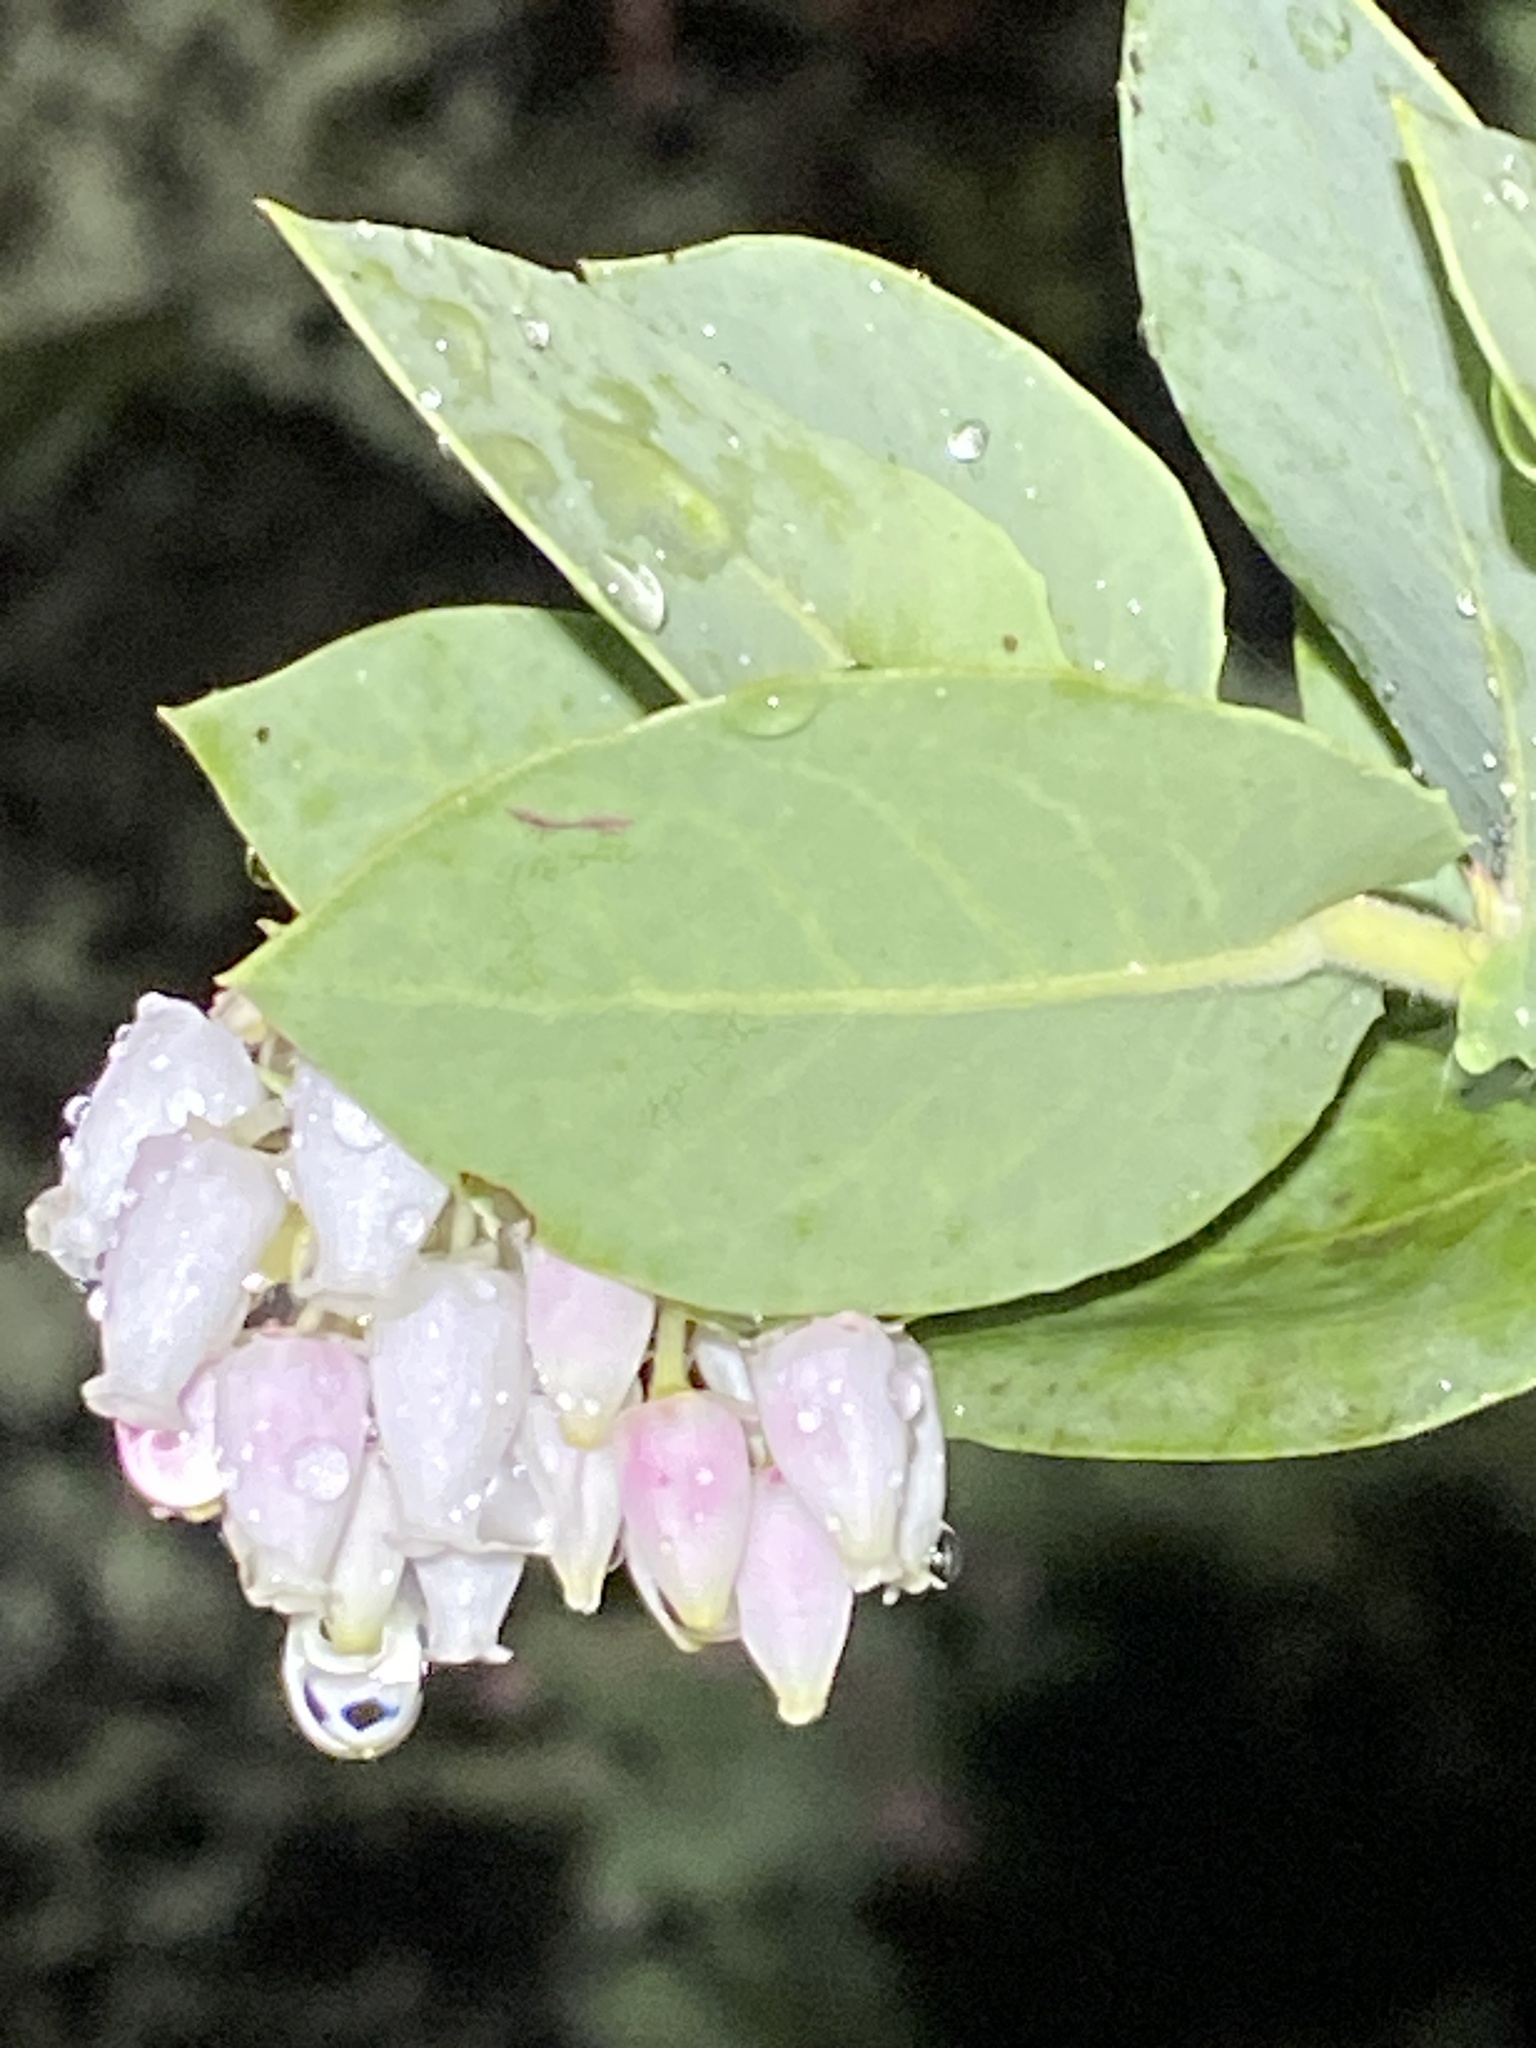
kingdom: Plantae
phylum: Tracheophyta
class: Magnoliopsida
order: Ericales
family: Ericaceae
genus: Arctostaphylos
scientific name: Arctostaphylos pallida
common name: Pallid manzanita
